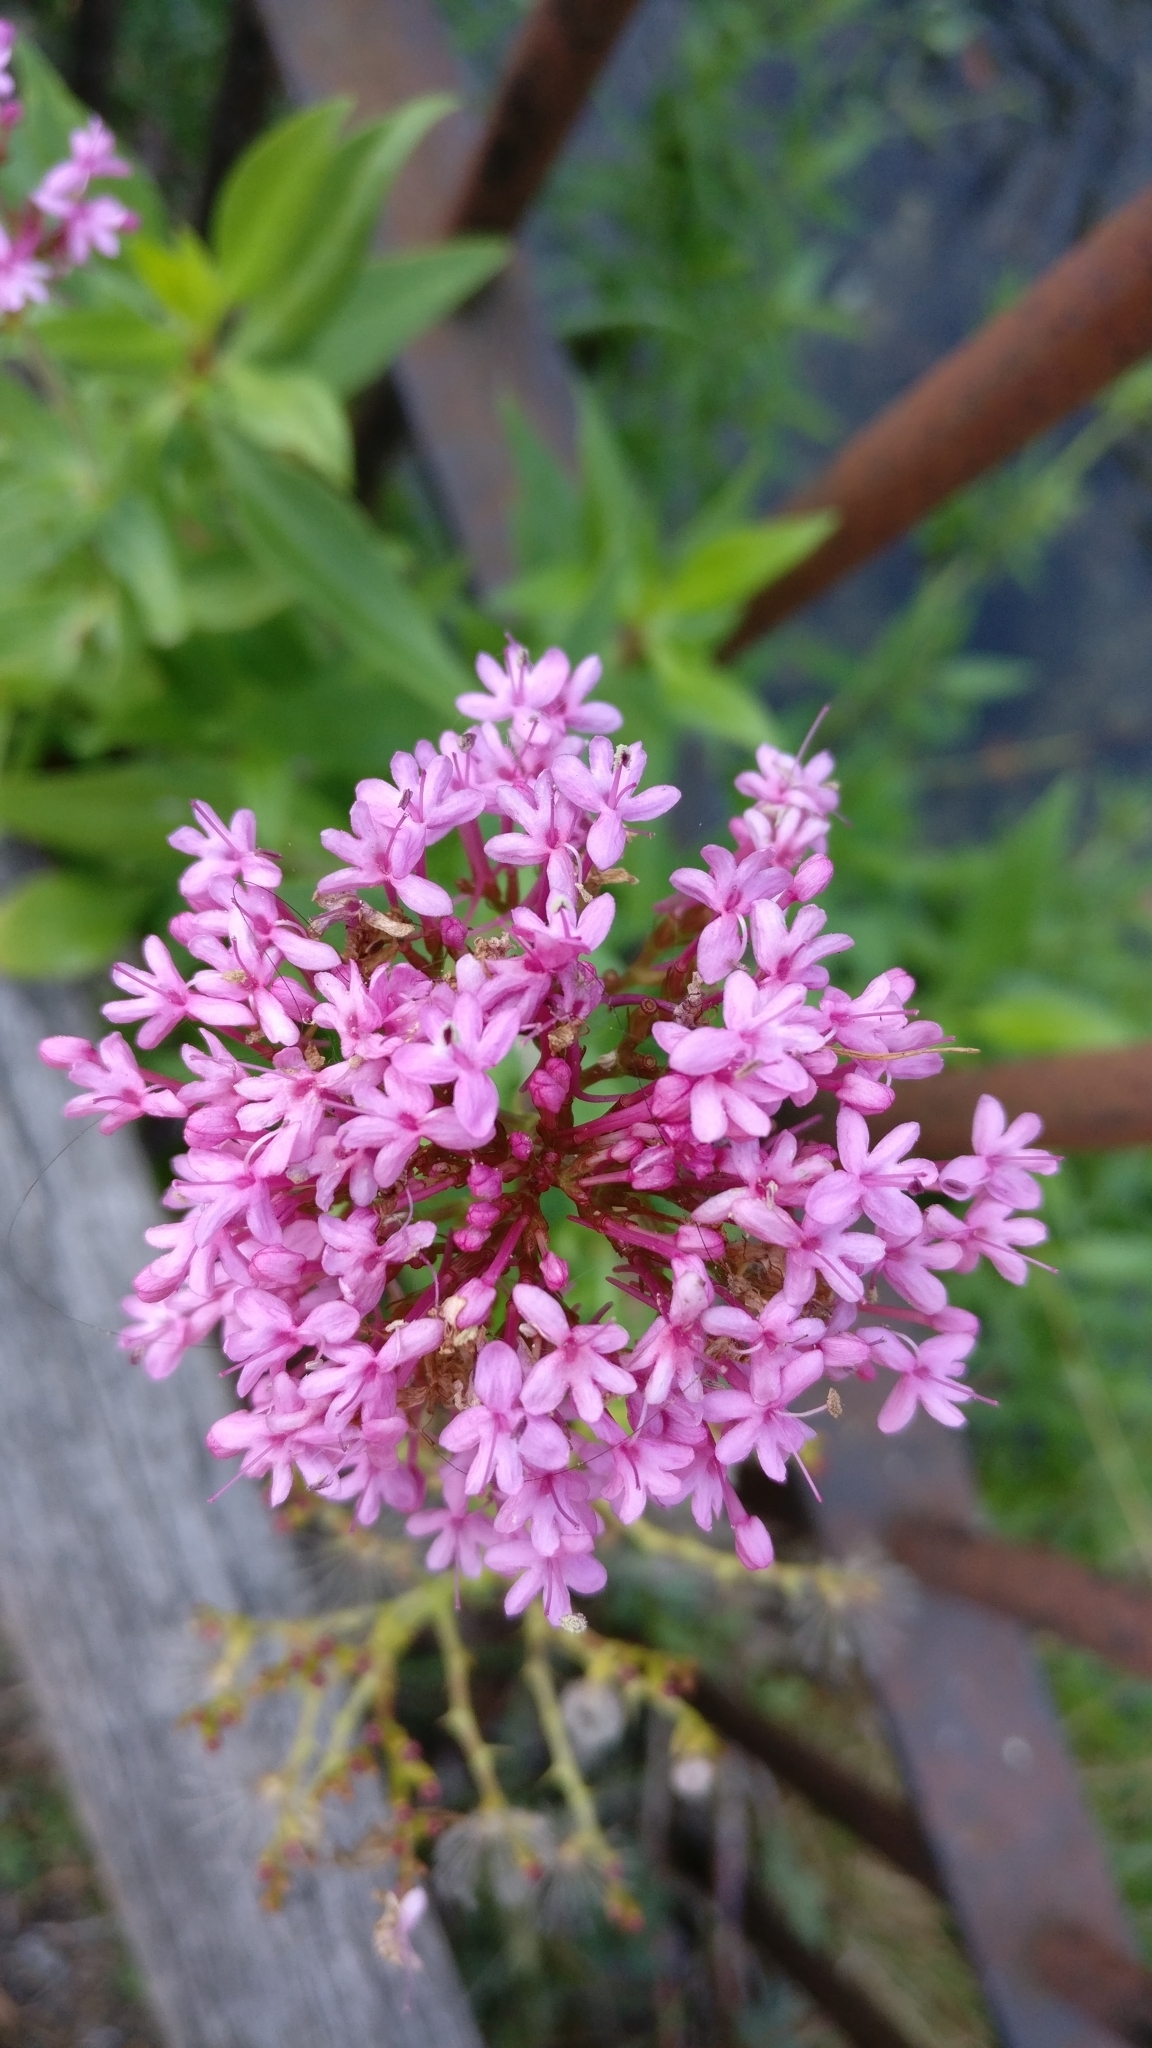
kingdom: Plantae
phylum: Tracheophyta
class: Magnoliopsida
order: Dipsacales
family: Caprifoliaceae
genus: Centranthus
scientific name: Centranthus ruber
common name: Red valerian
